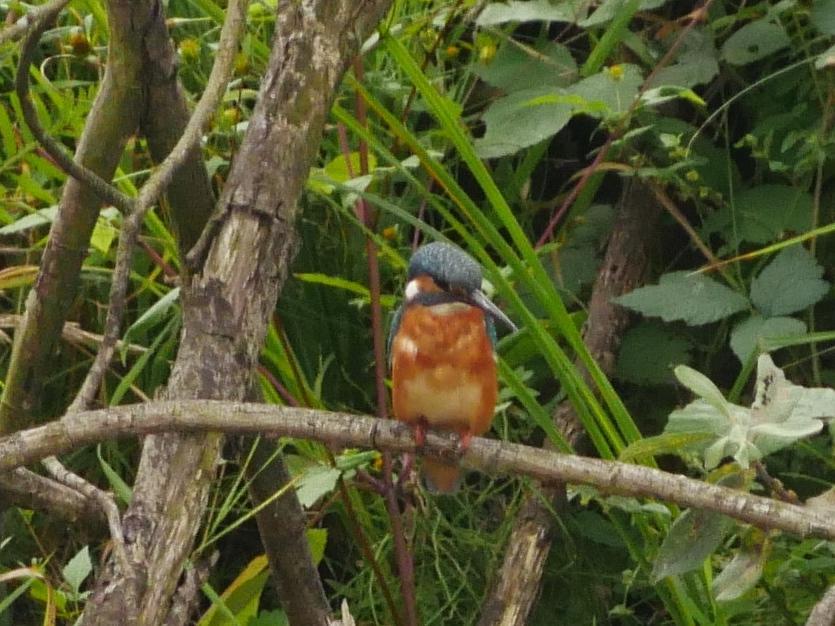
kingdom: Animalia
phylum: Chordata
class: Aves
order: Coraciiformes
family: Alcedinidae
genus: Alcedo
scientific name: Alcedo atthis
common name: Common kingfisher
